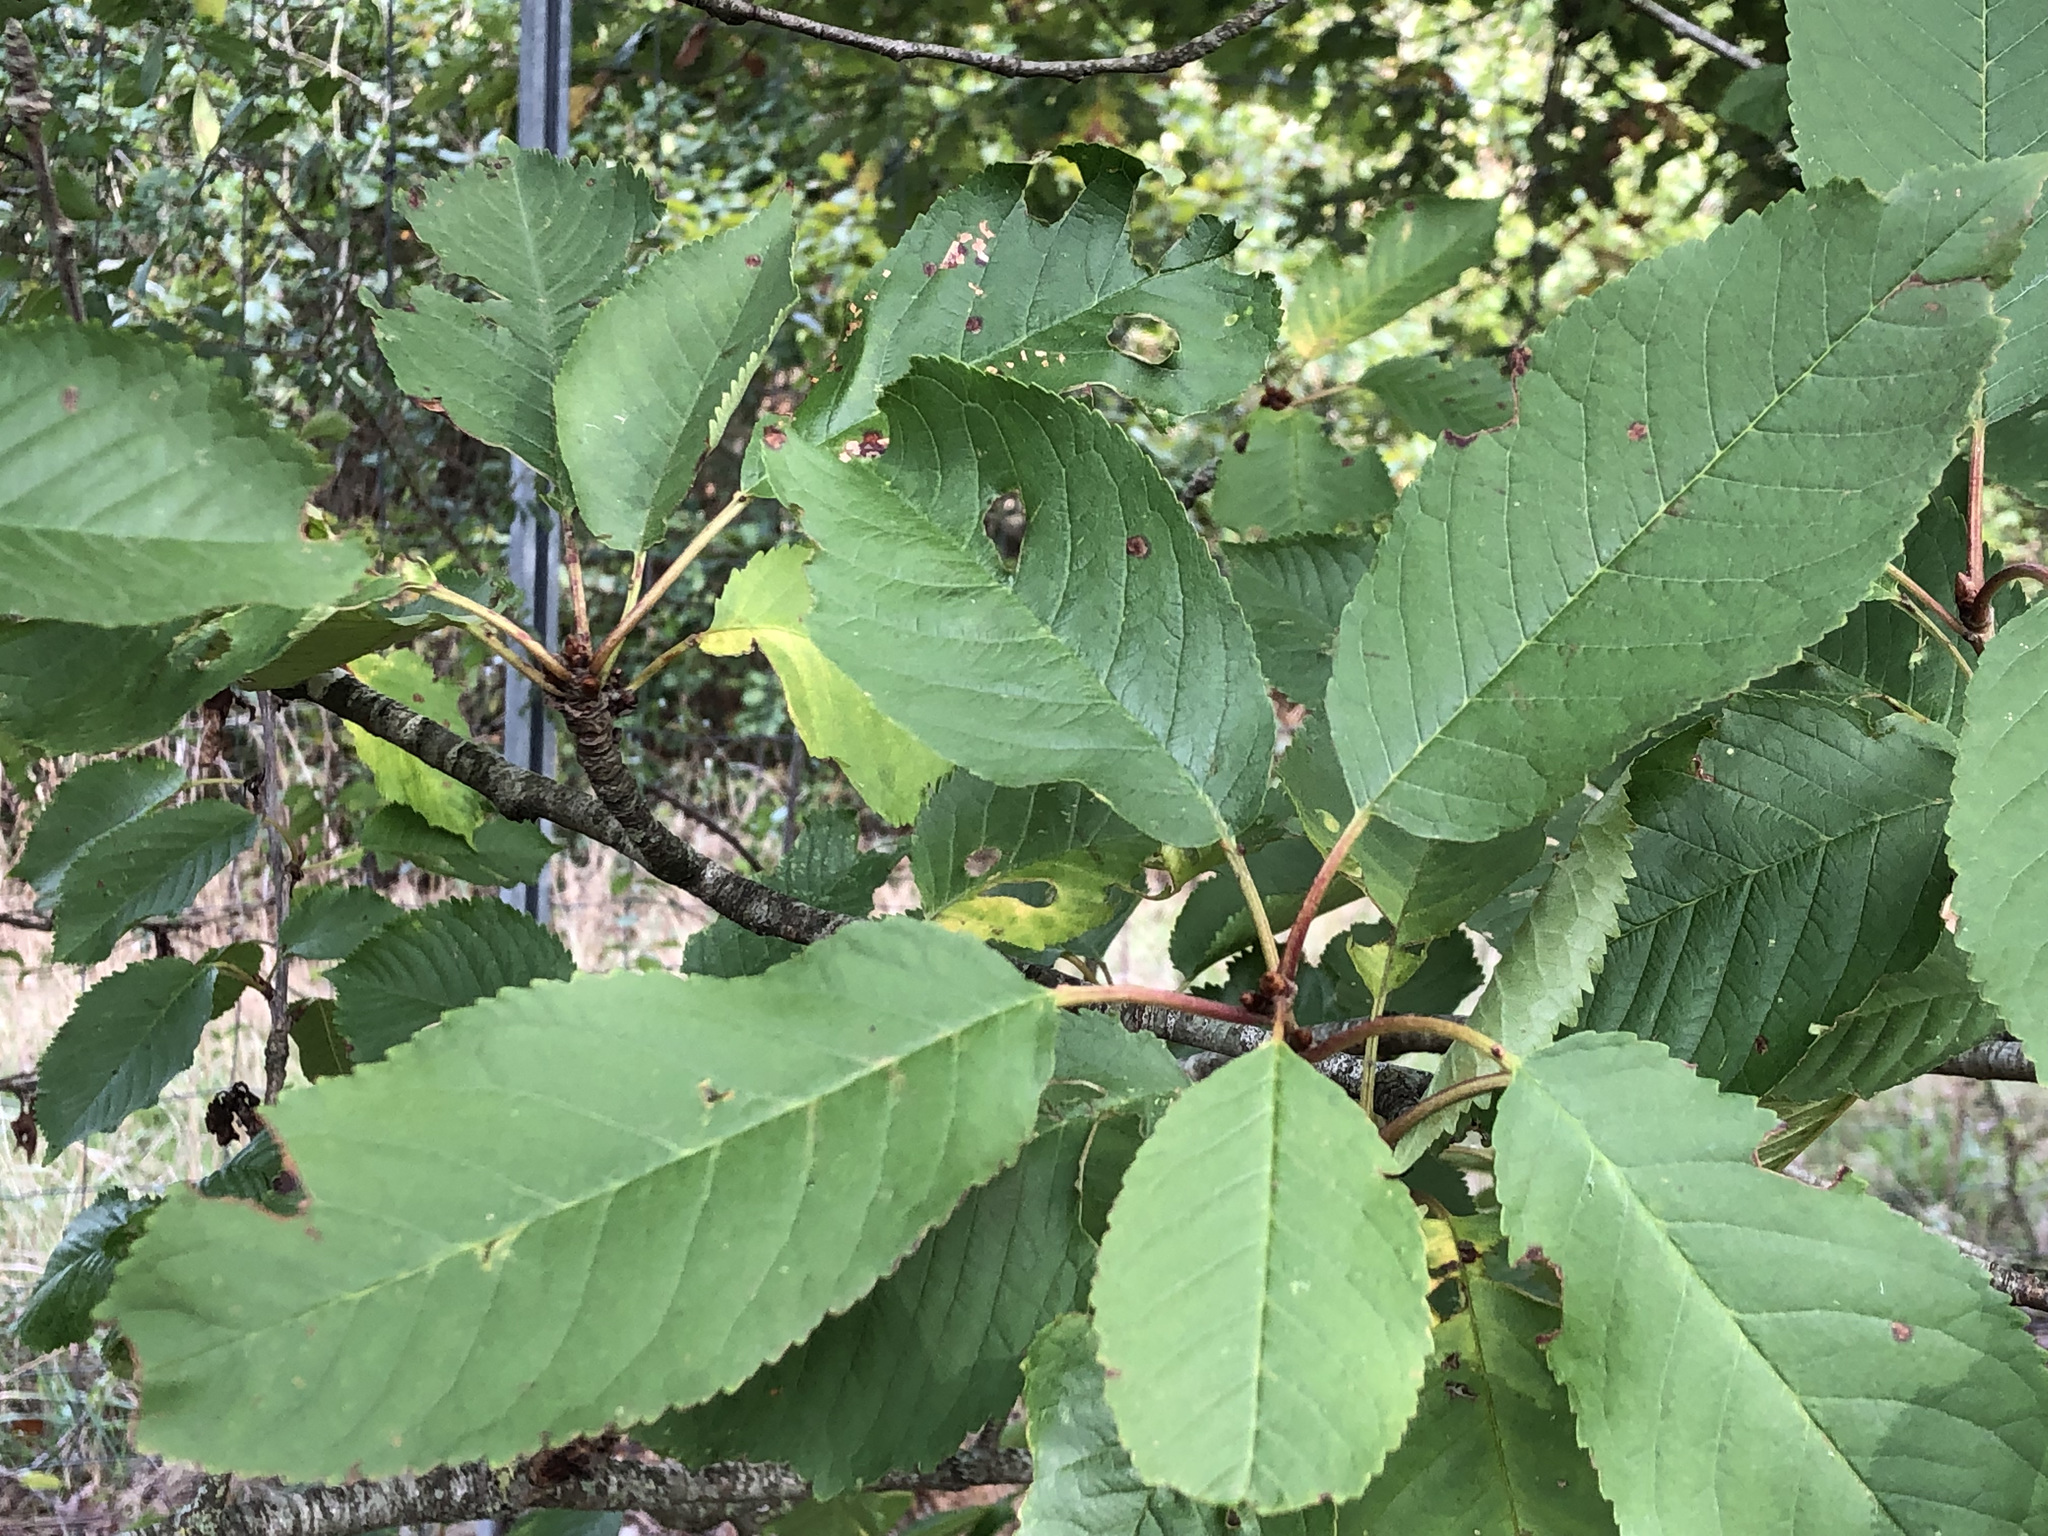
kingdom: Plantae
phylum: Tracheophyta
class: Magnoliopsida
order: Rosales
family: Rosaceae
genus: Prunus
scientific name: Prunus avium
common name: Sweet cherry
